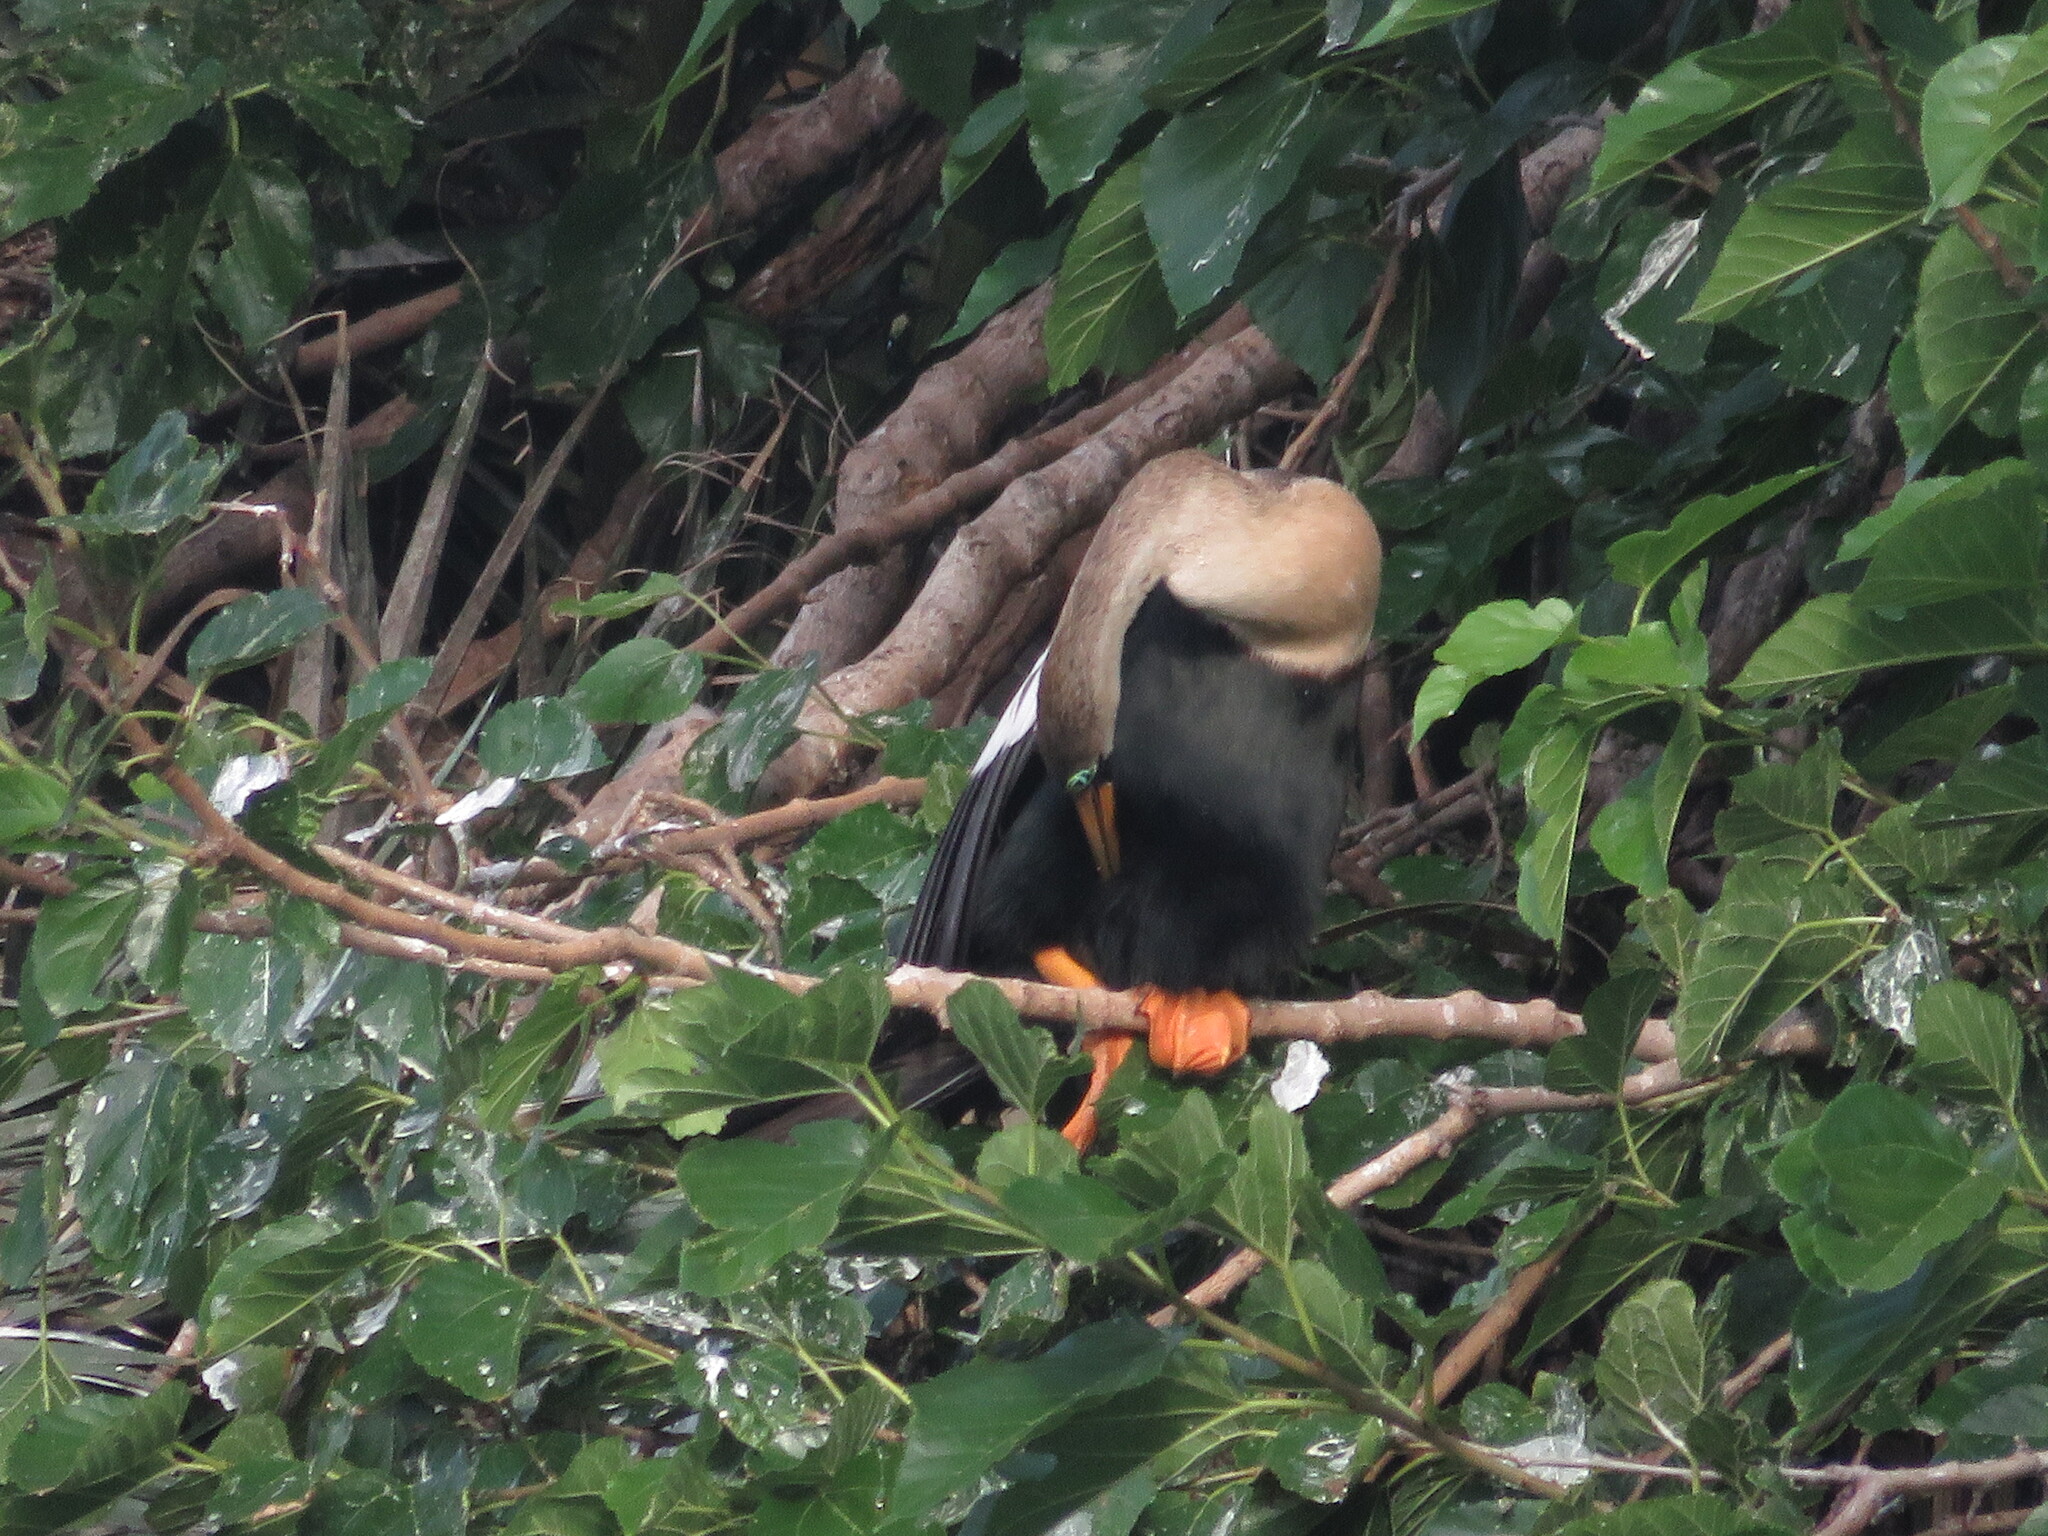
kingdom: Animalia
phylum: Chordata
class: Aves
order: Suliformes
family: Anhingidae
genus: Anhinga
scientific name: Anhinga anhinga
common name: Anhinga
